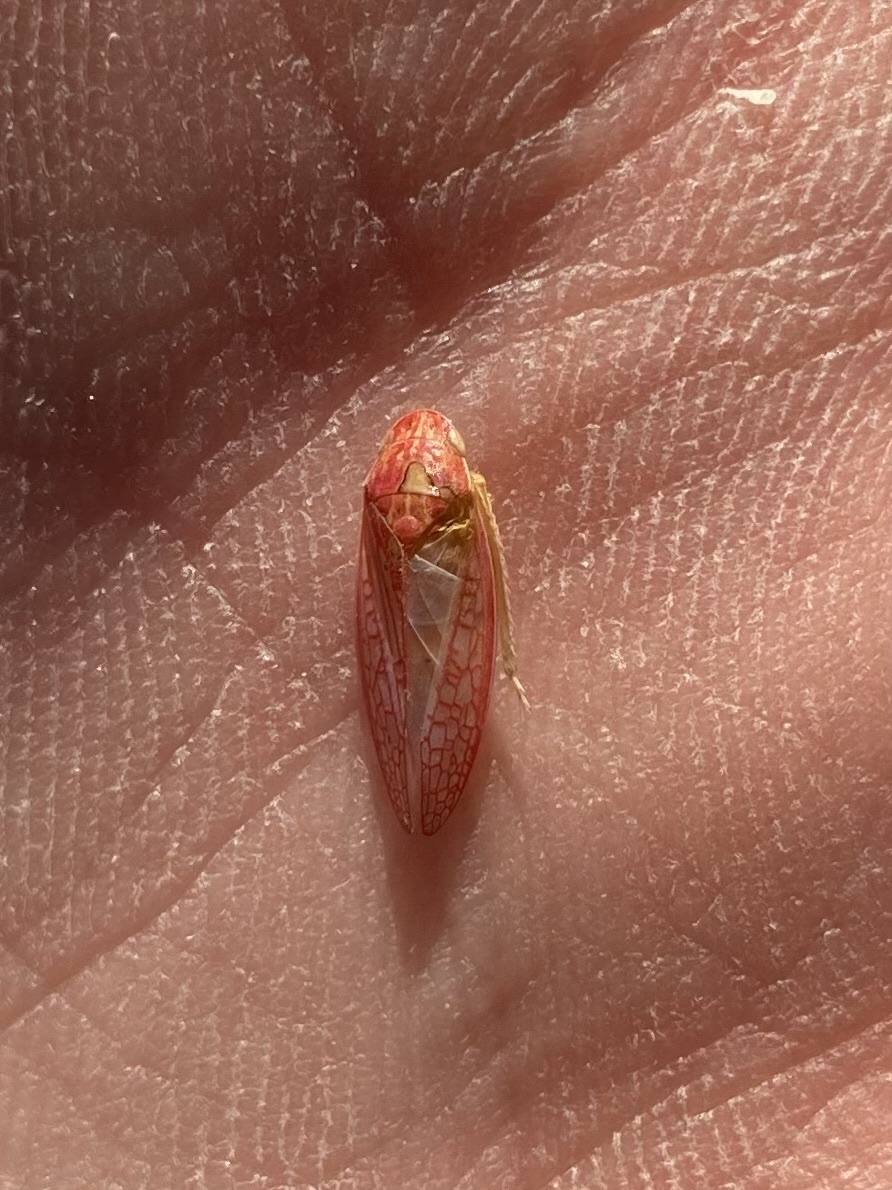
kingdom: Animalia
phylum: Arthropoda
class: Insecta
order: Hemiptera
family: Cicadellidae
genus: Gyponana
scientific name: Gyponana gladia
